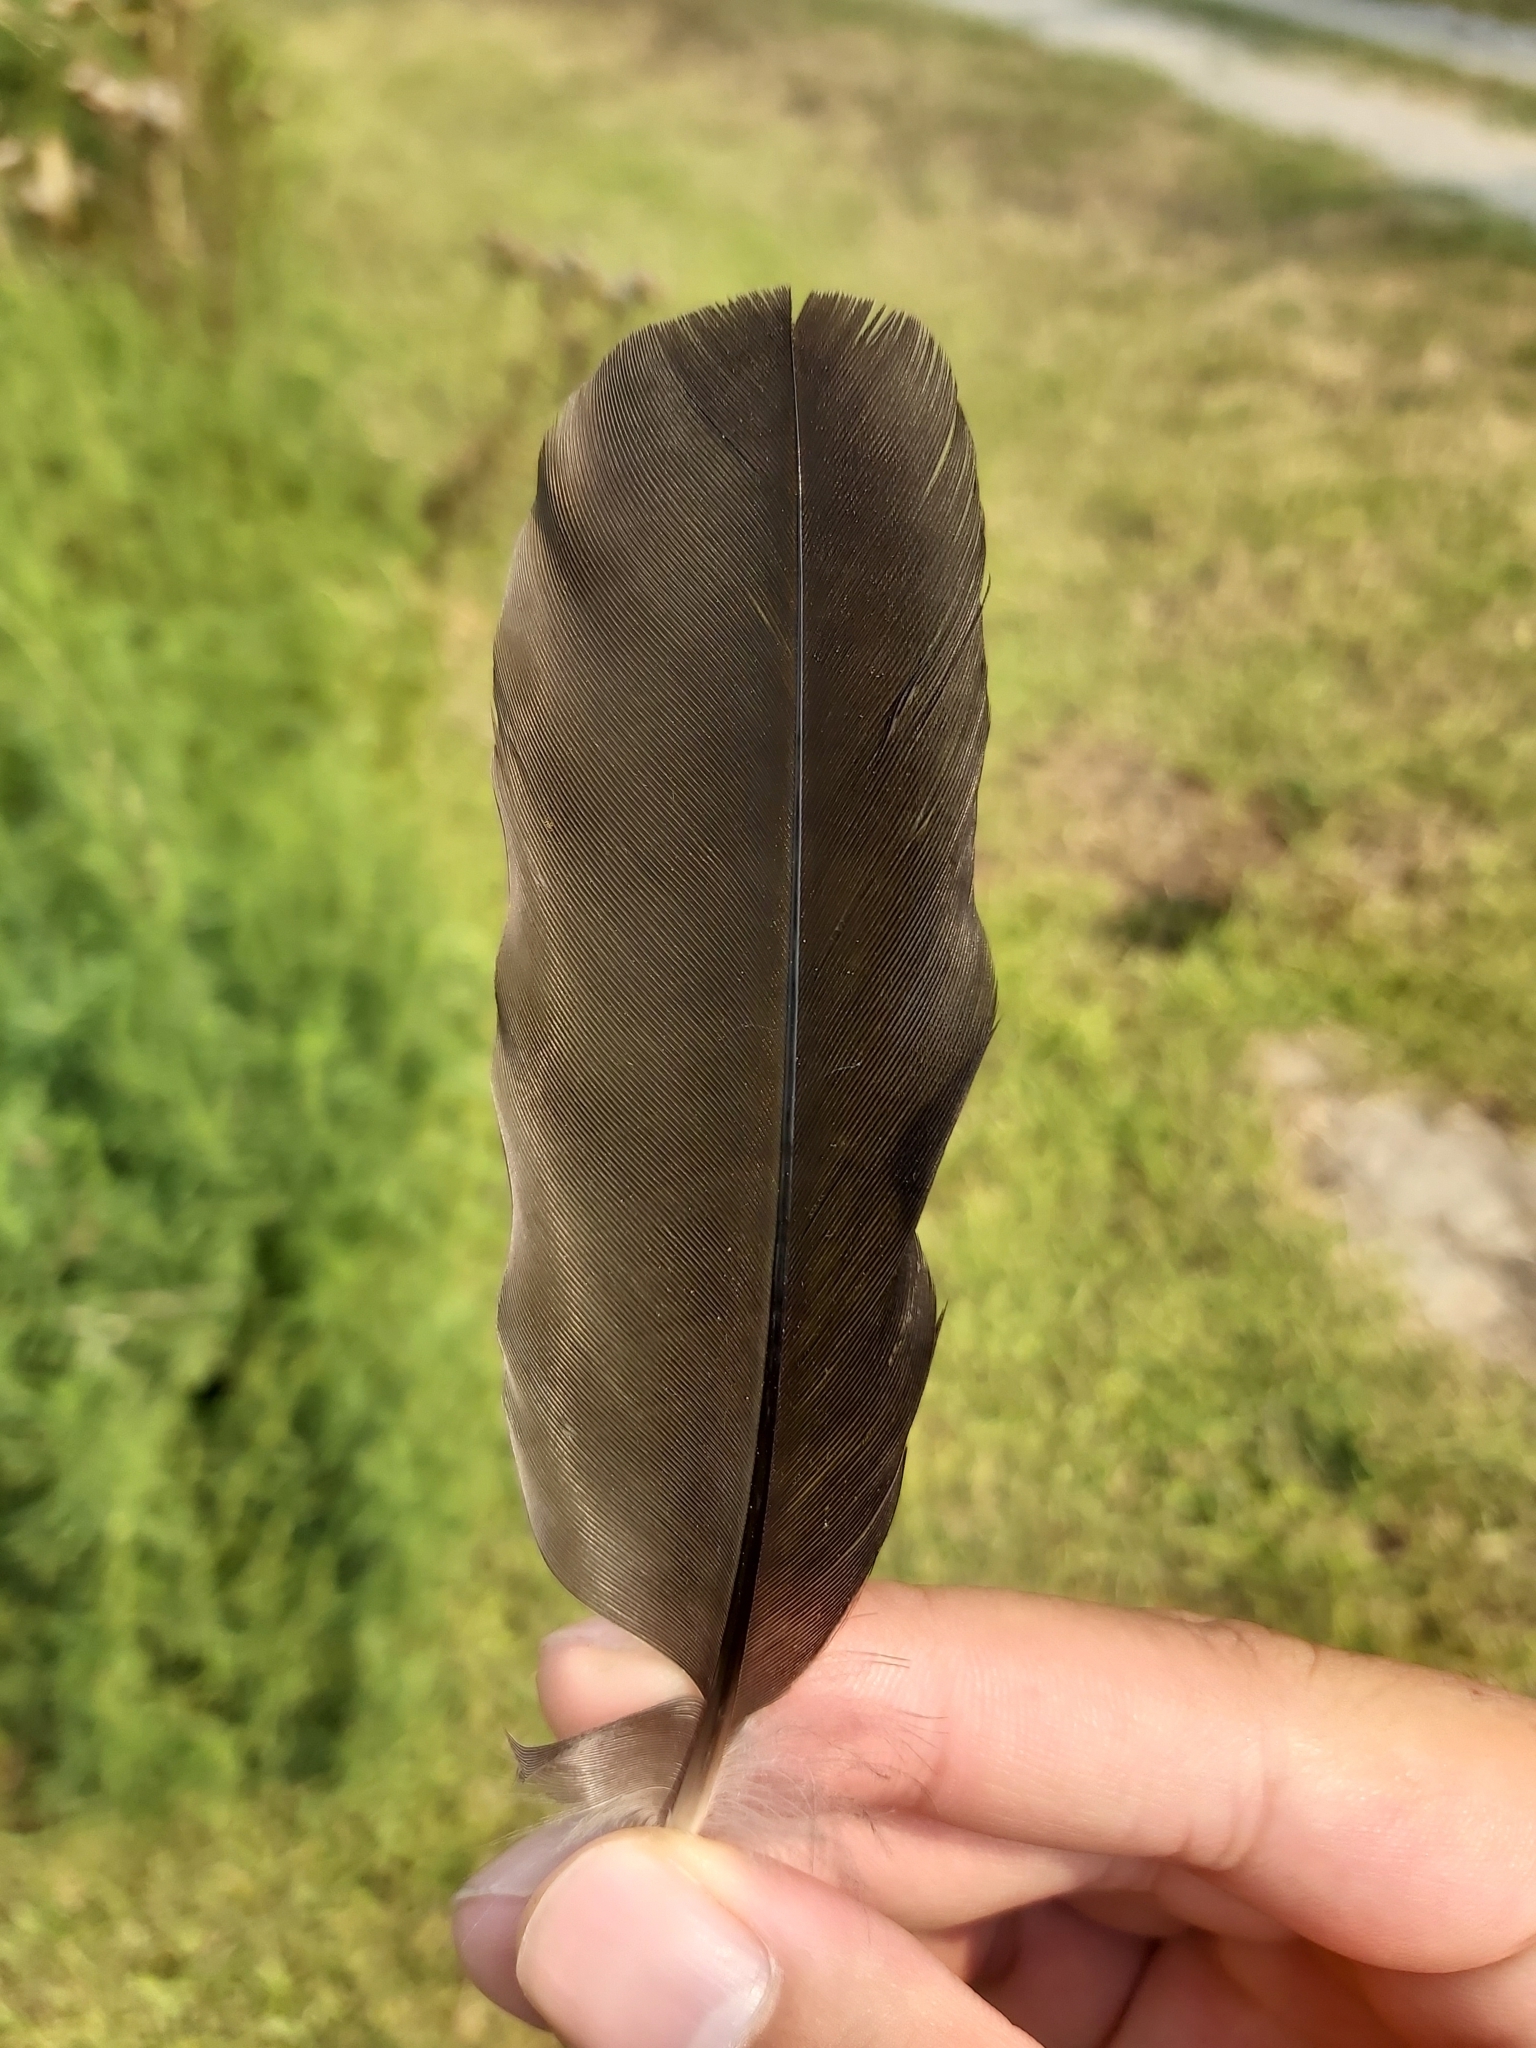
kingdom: Animalia
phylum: Chordata
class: Aves
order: Passeriformes
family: Cracticidae
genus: Gymnorhina
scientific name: Gymnorhina tibicen
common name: Australian magpie
